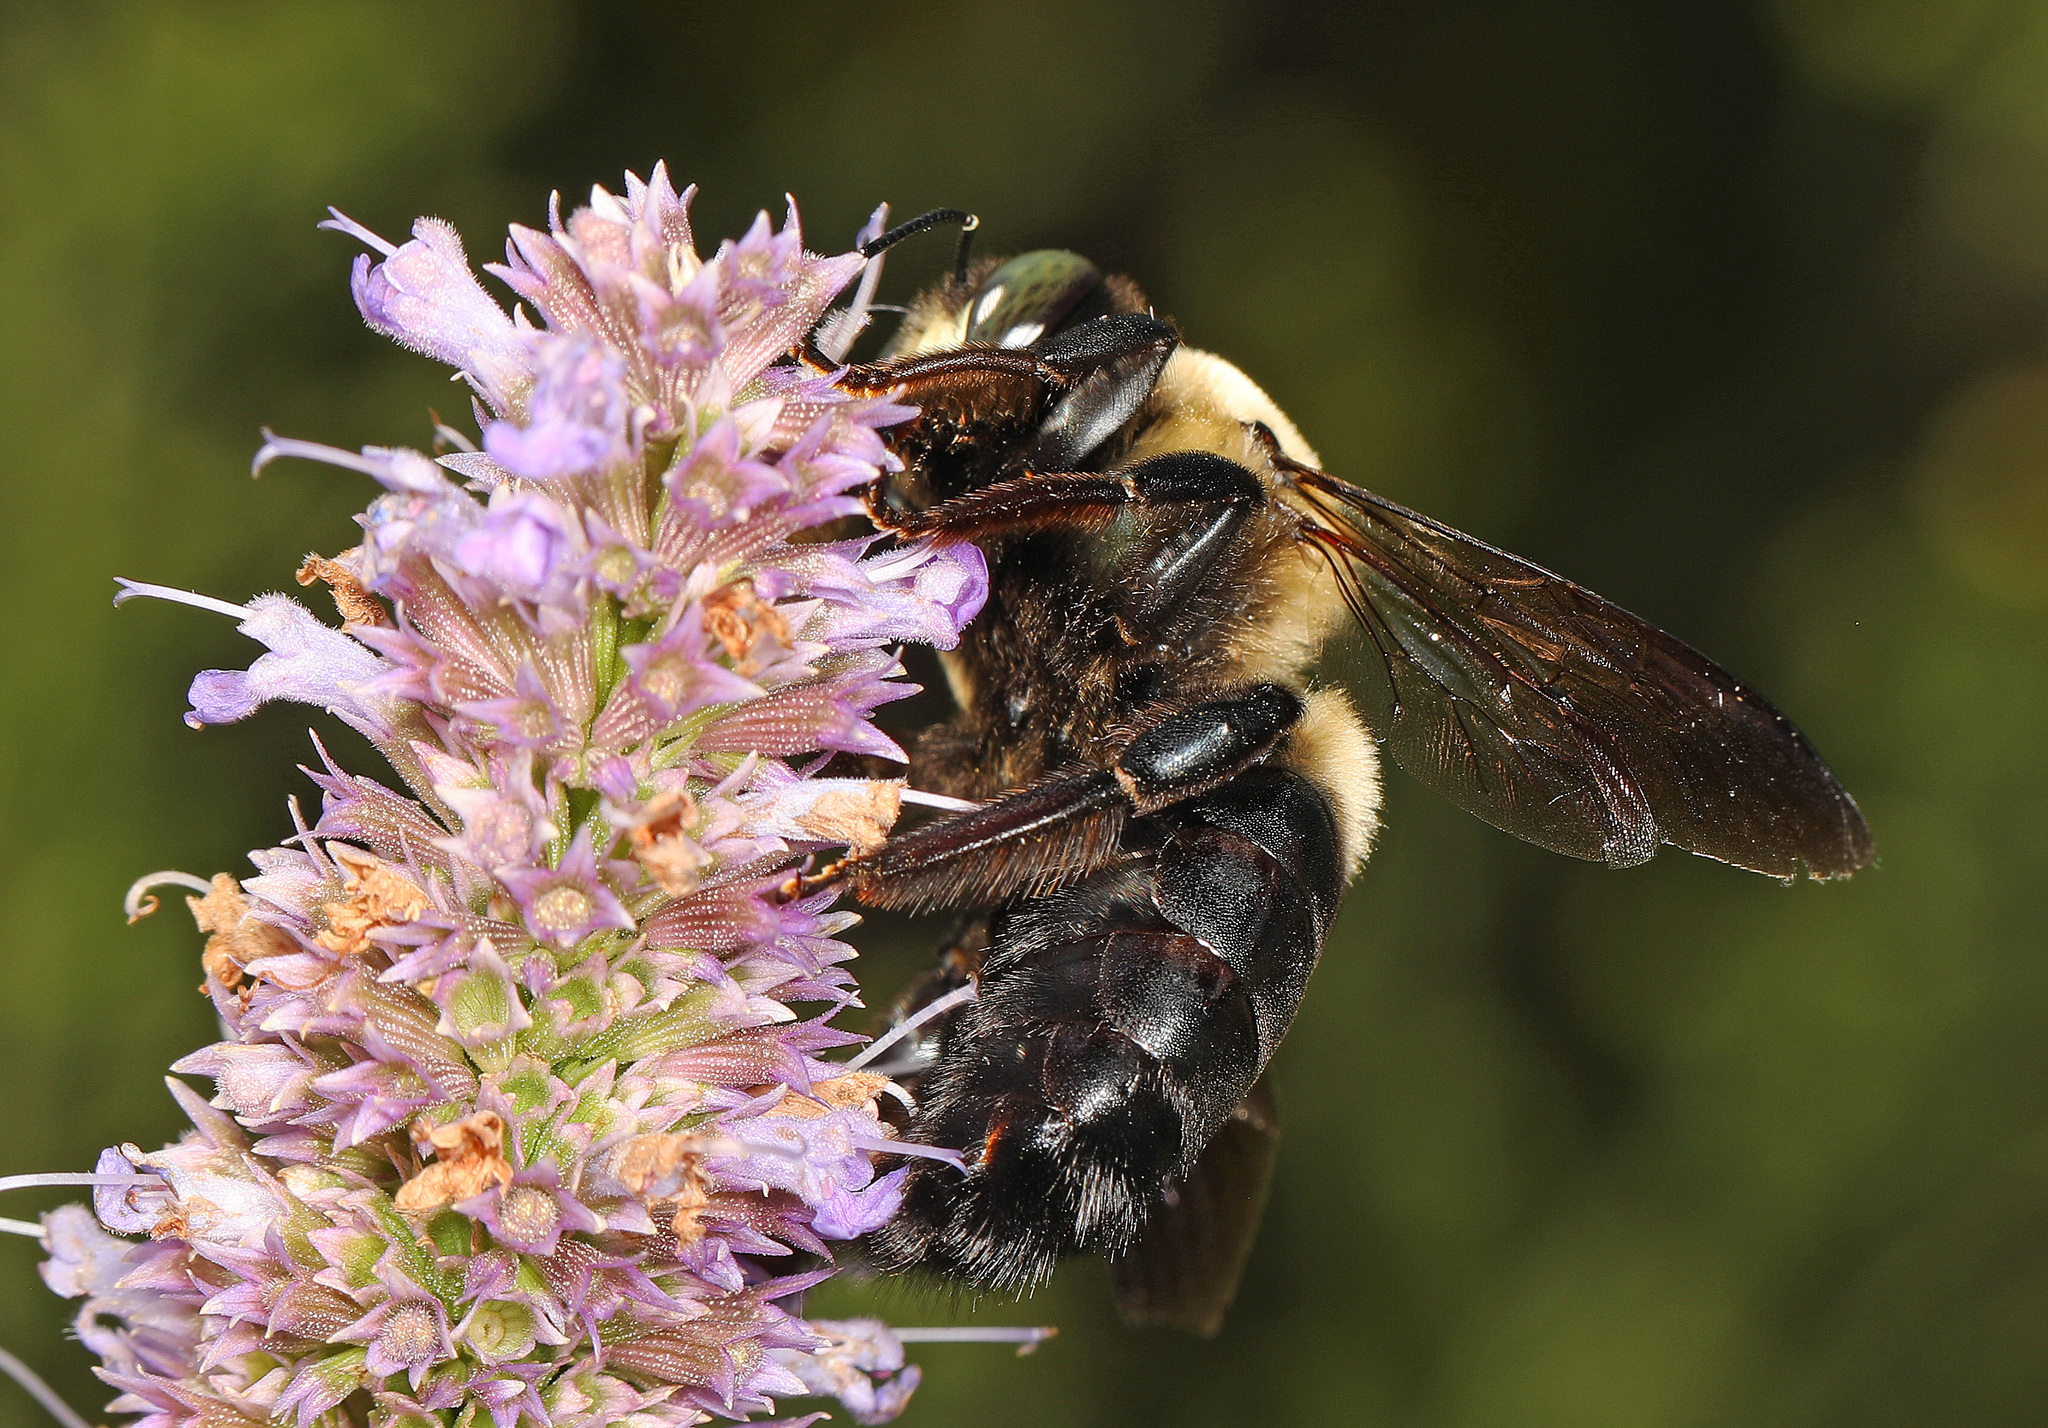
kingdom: Animalia
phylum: Arthropoda
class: Insecta
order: Hymenoptera
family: Apidae
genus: Xylocopa
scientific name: Xylocopa virginica
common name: Carpenter bee
